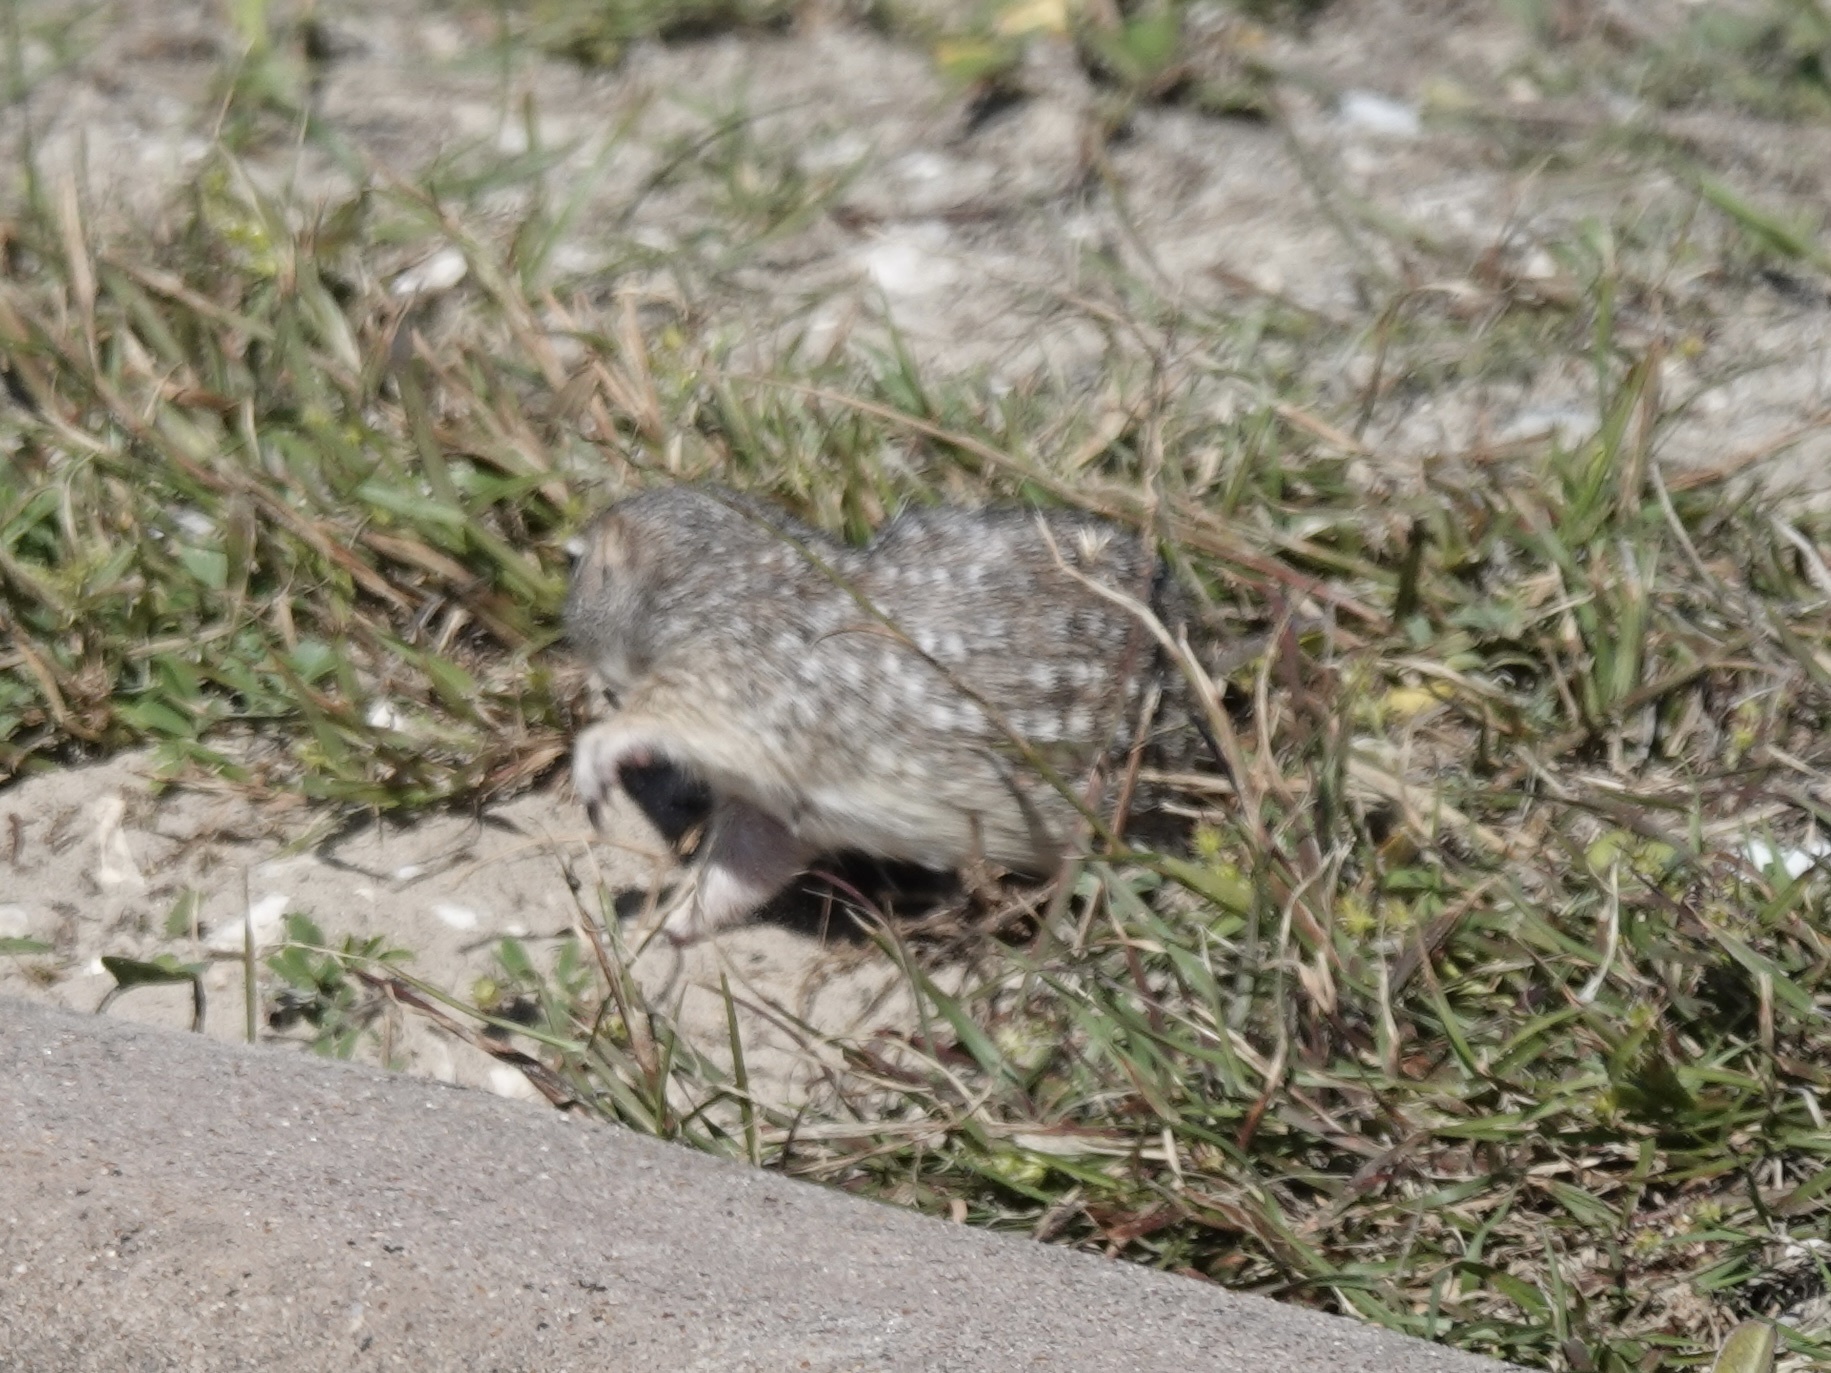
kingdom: Animalia
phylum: Chordata
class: Mammalia
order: Rodentia
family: Sciuridae
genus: Xerospermophilus
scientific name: Xerospermophilus spilosoma
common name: Spotted ground squirrel
